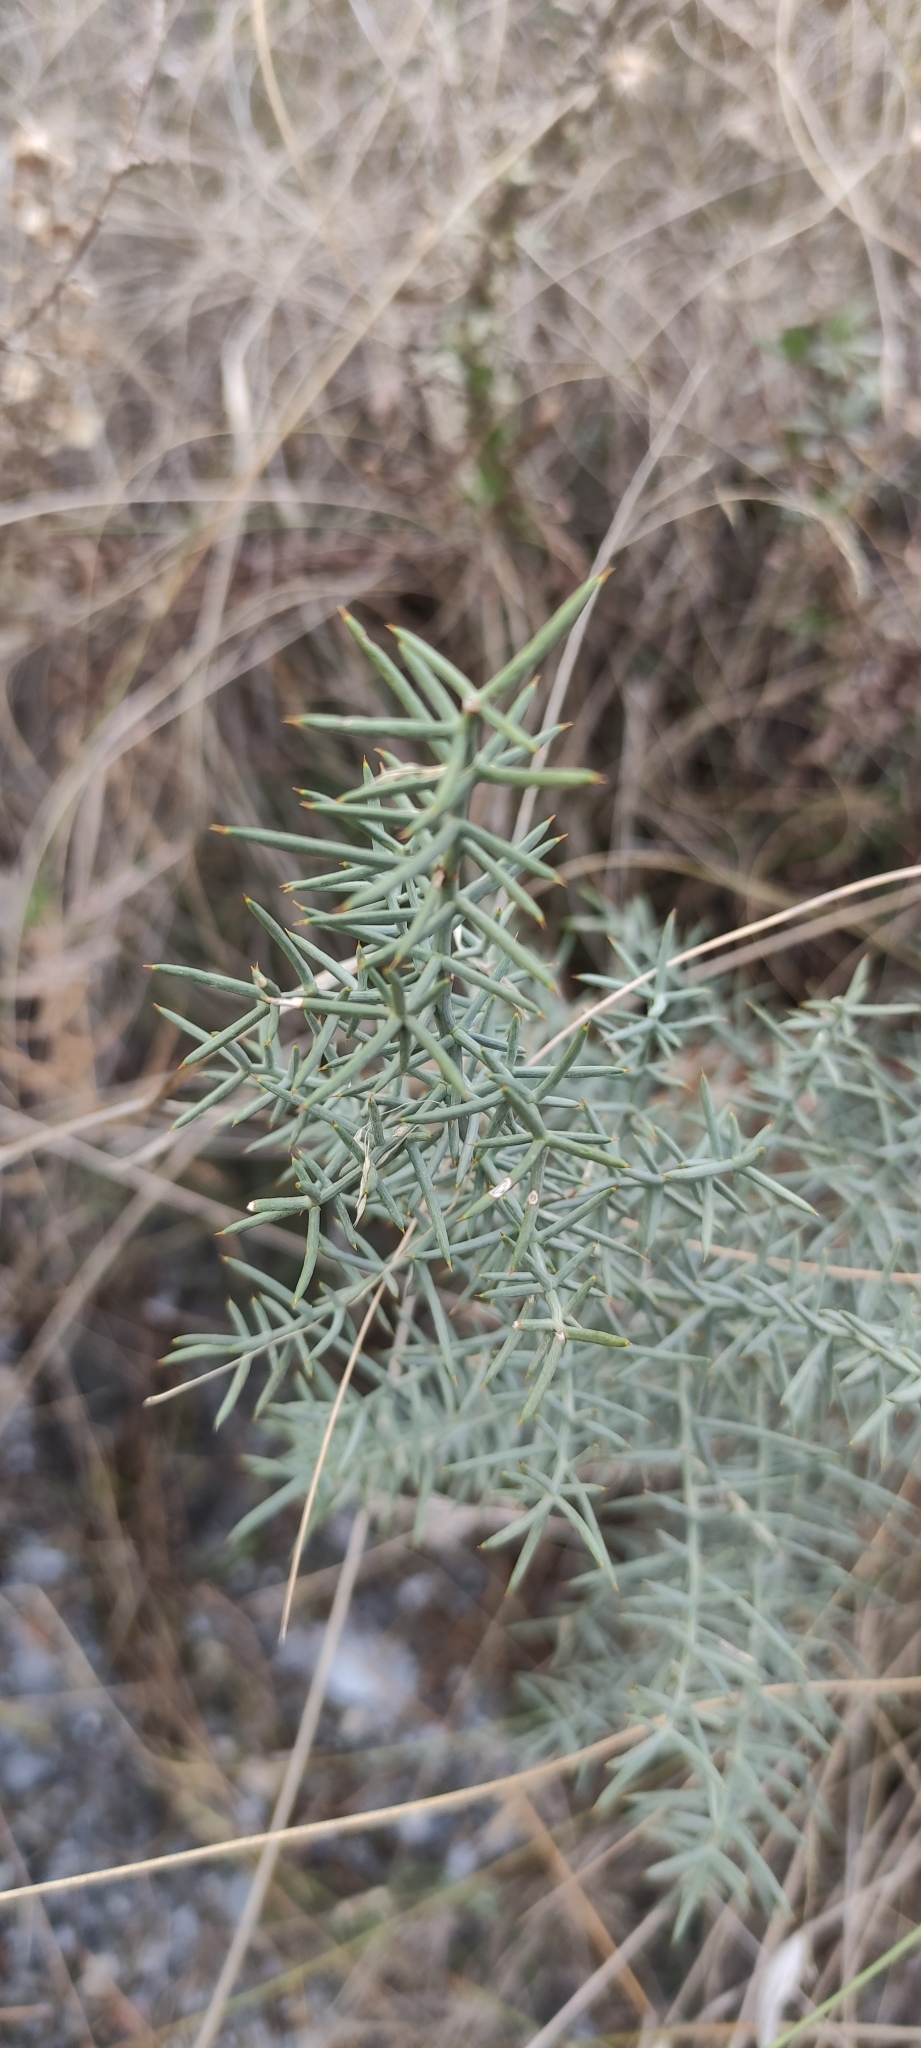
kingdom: Plantae
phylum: Tracheophyta
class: Liliopsida
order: Asparagales
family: Asparagaceae
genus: Asparagus
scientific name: Asparagus horridus
